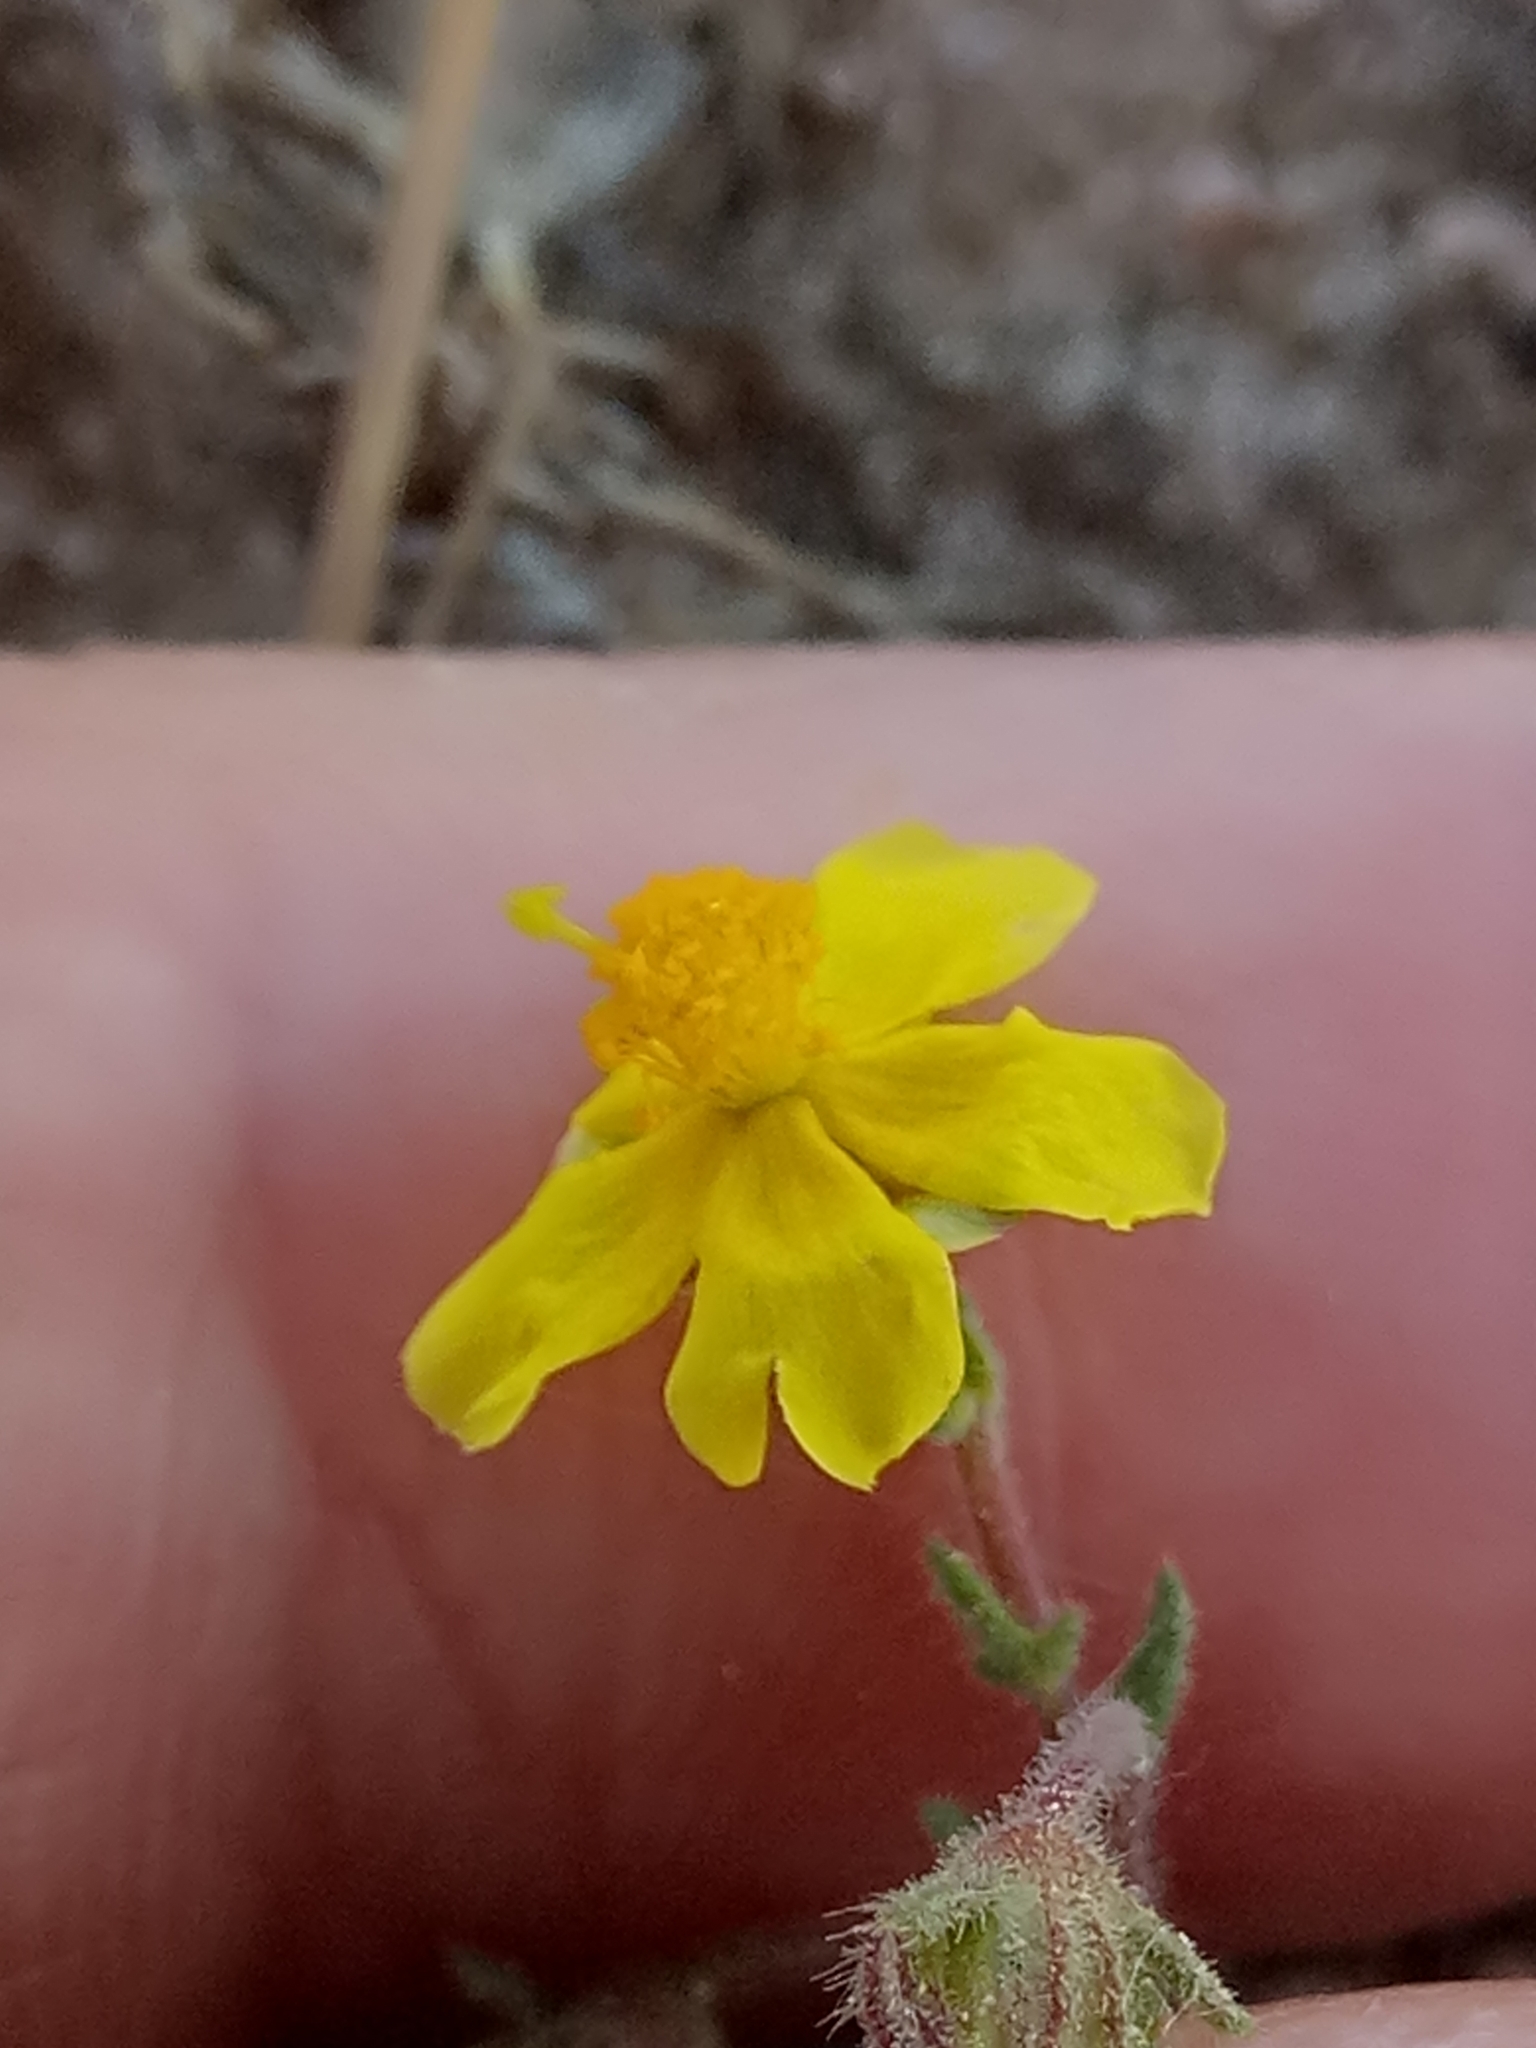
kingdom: Plantae
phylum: Tracheophyta
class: Magnoliopsida
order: Malvales
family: Cistaceae
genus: Fumana
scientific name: Fumana laevis
